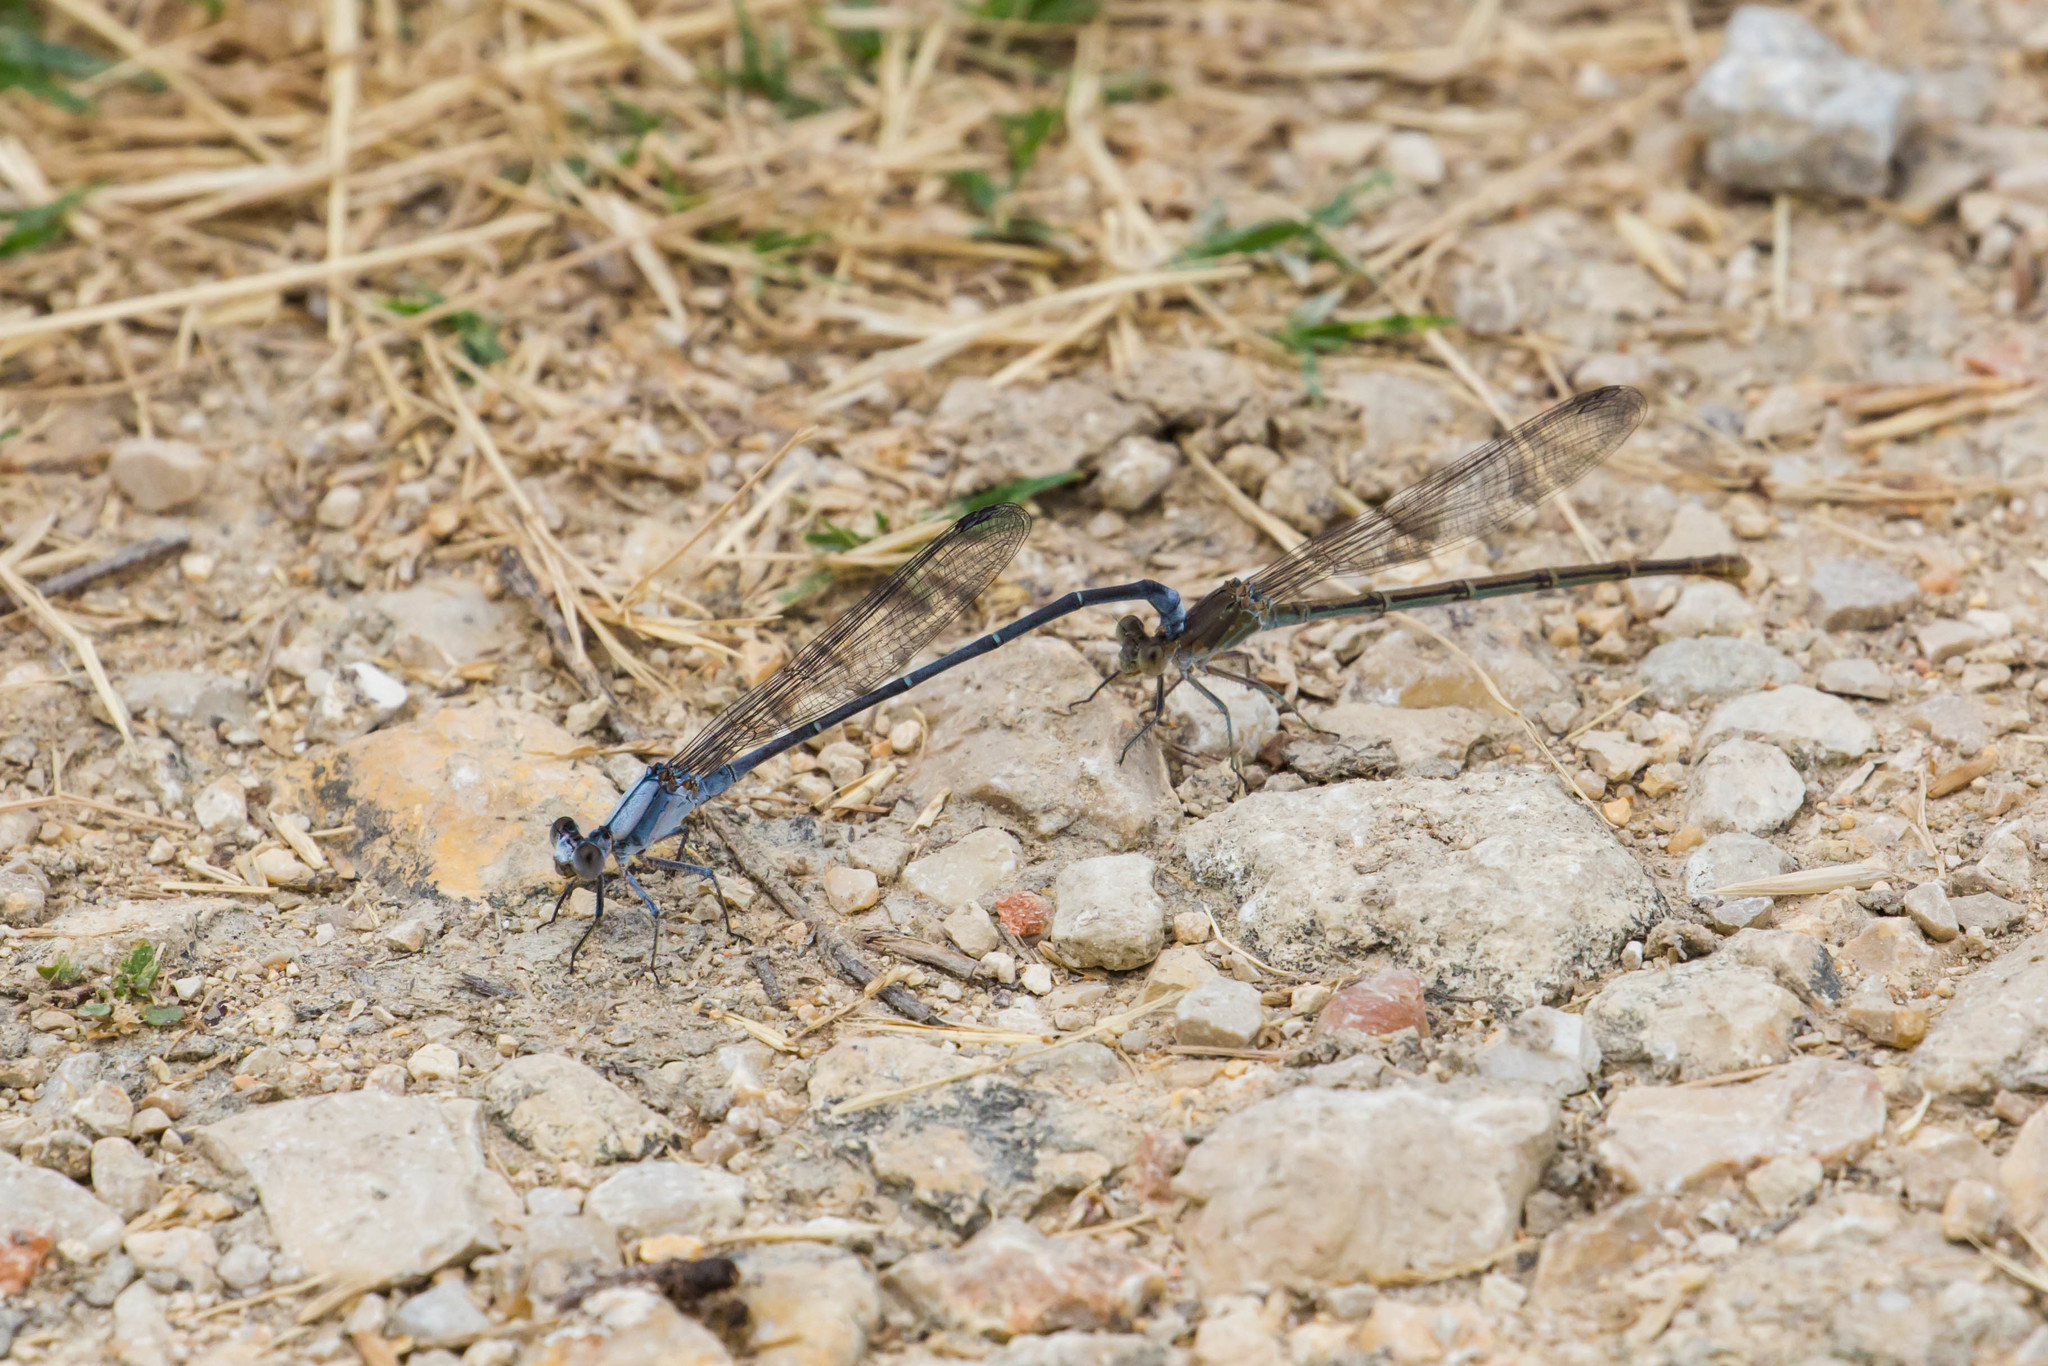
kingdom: Animalia
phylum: Arthropoda
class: Insecta
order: Odonata
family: Coenagrionidae
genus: Argia
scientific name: Argia moesta
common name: Powdered dancer
